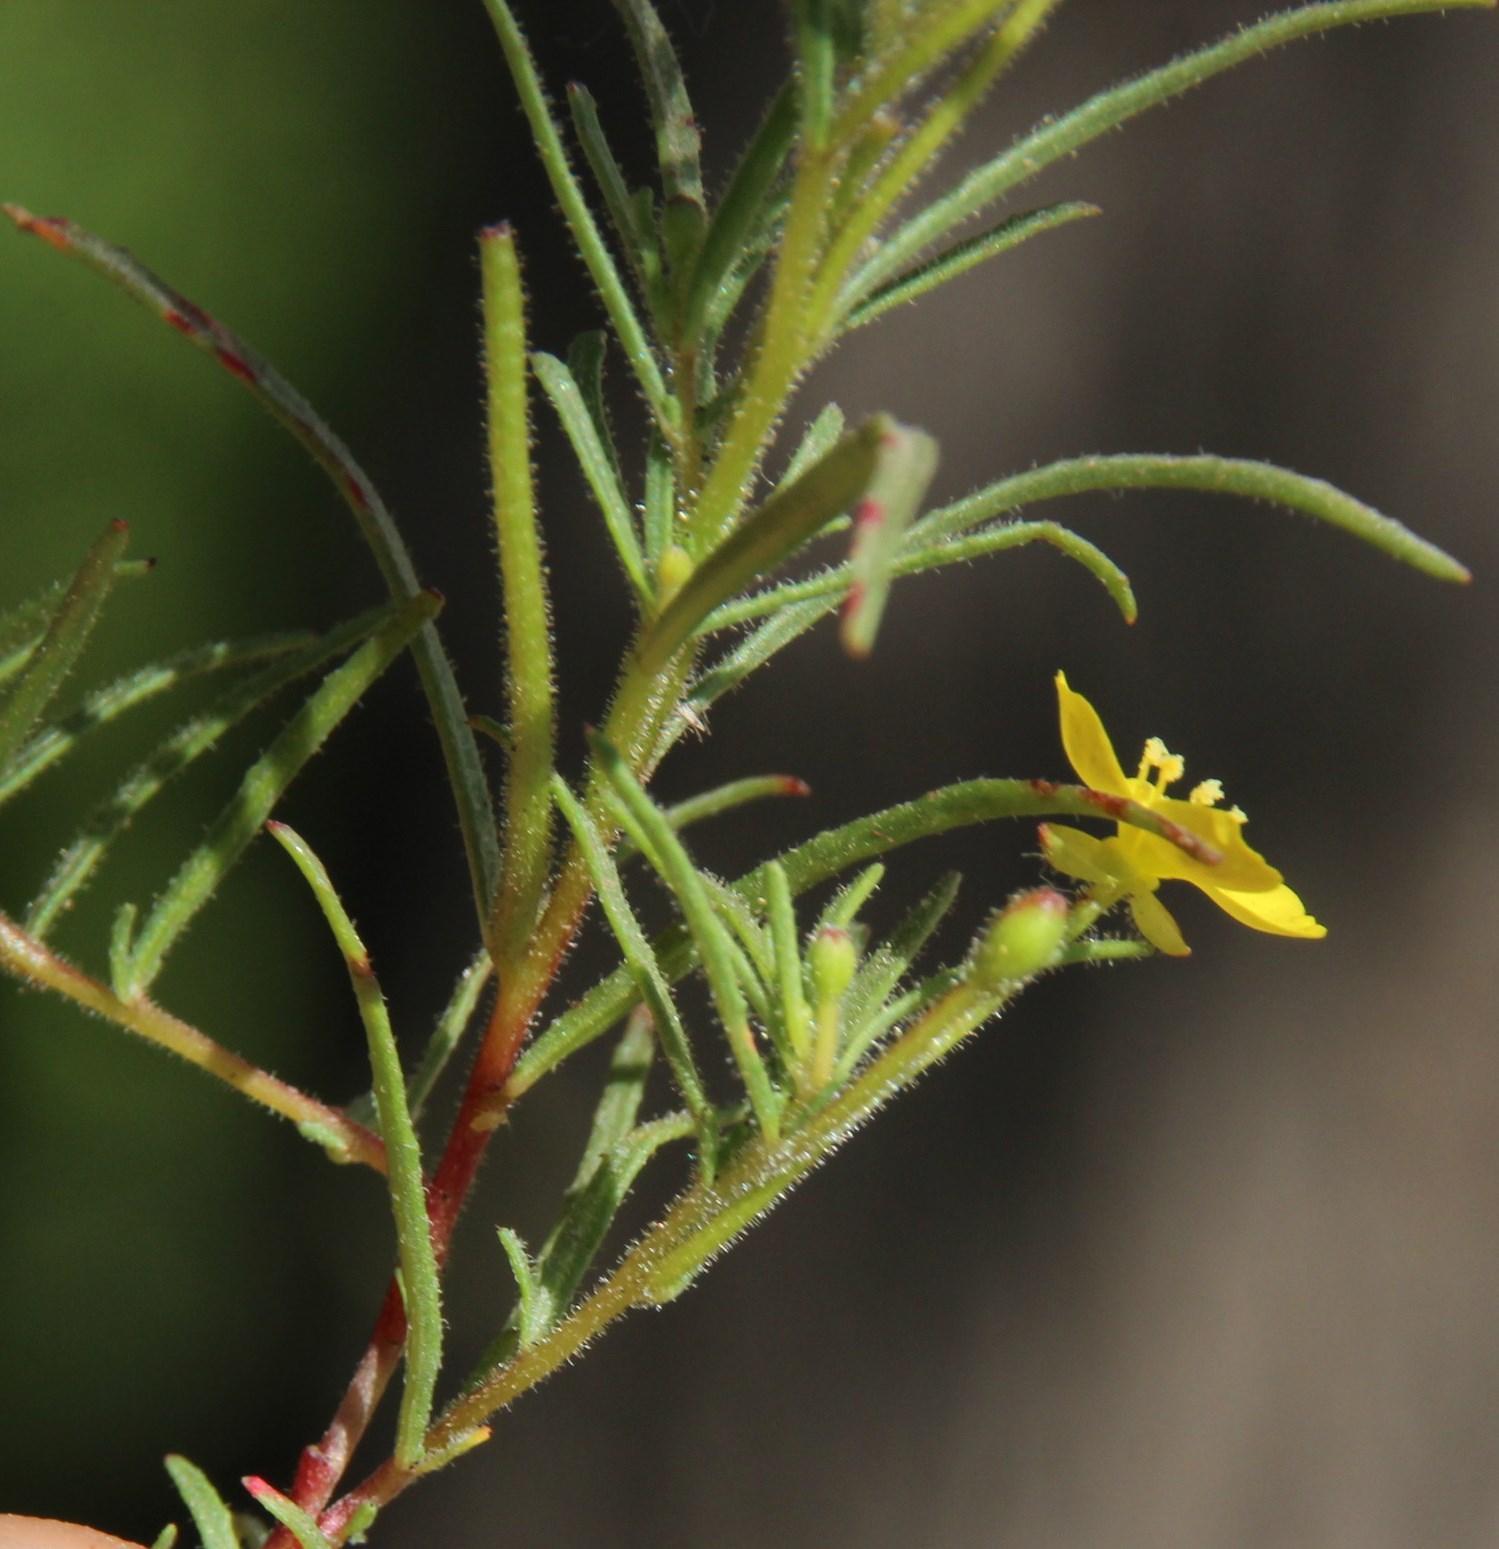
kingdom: Plantae
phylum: Tracheophyta
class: Magnoliopsida
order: Myrtales
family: Onagraceae
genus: Camissonia
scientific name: Camissonia dentata
